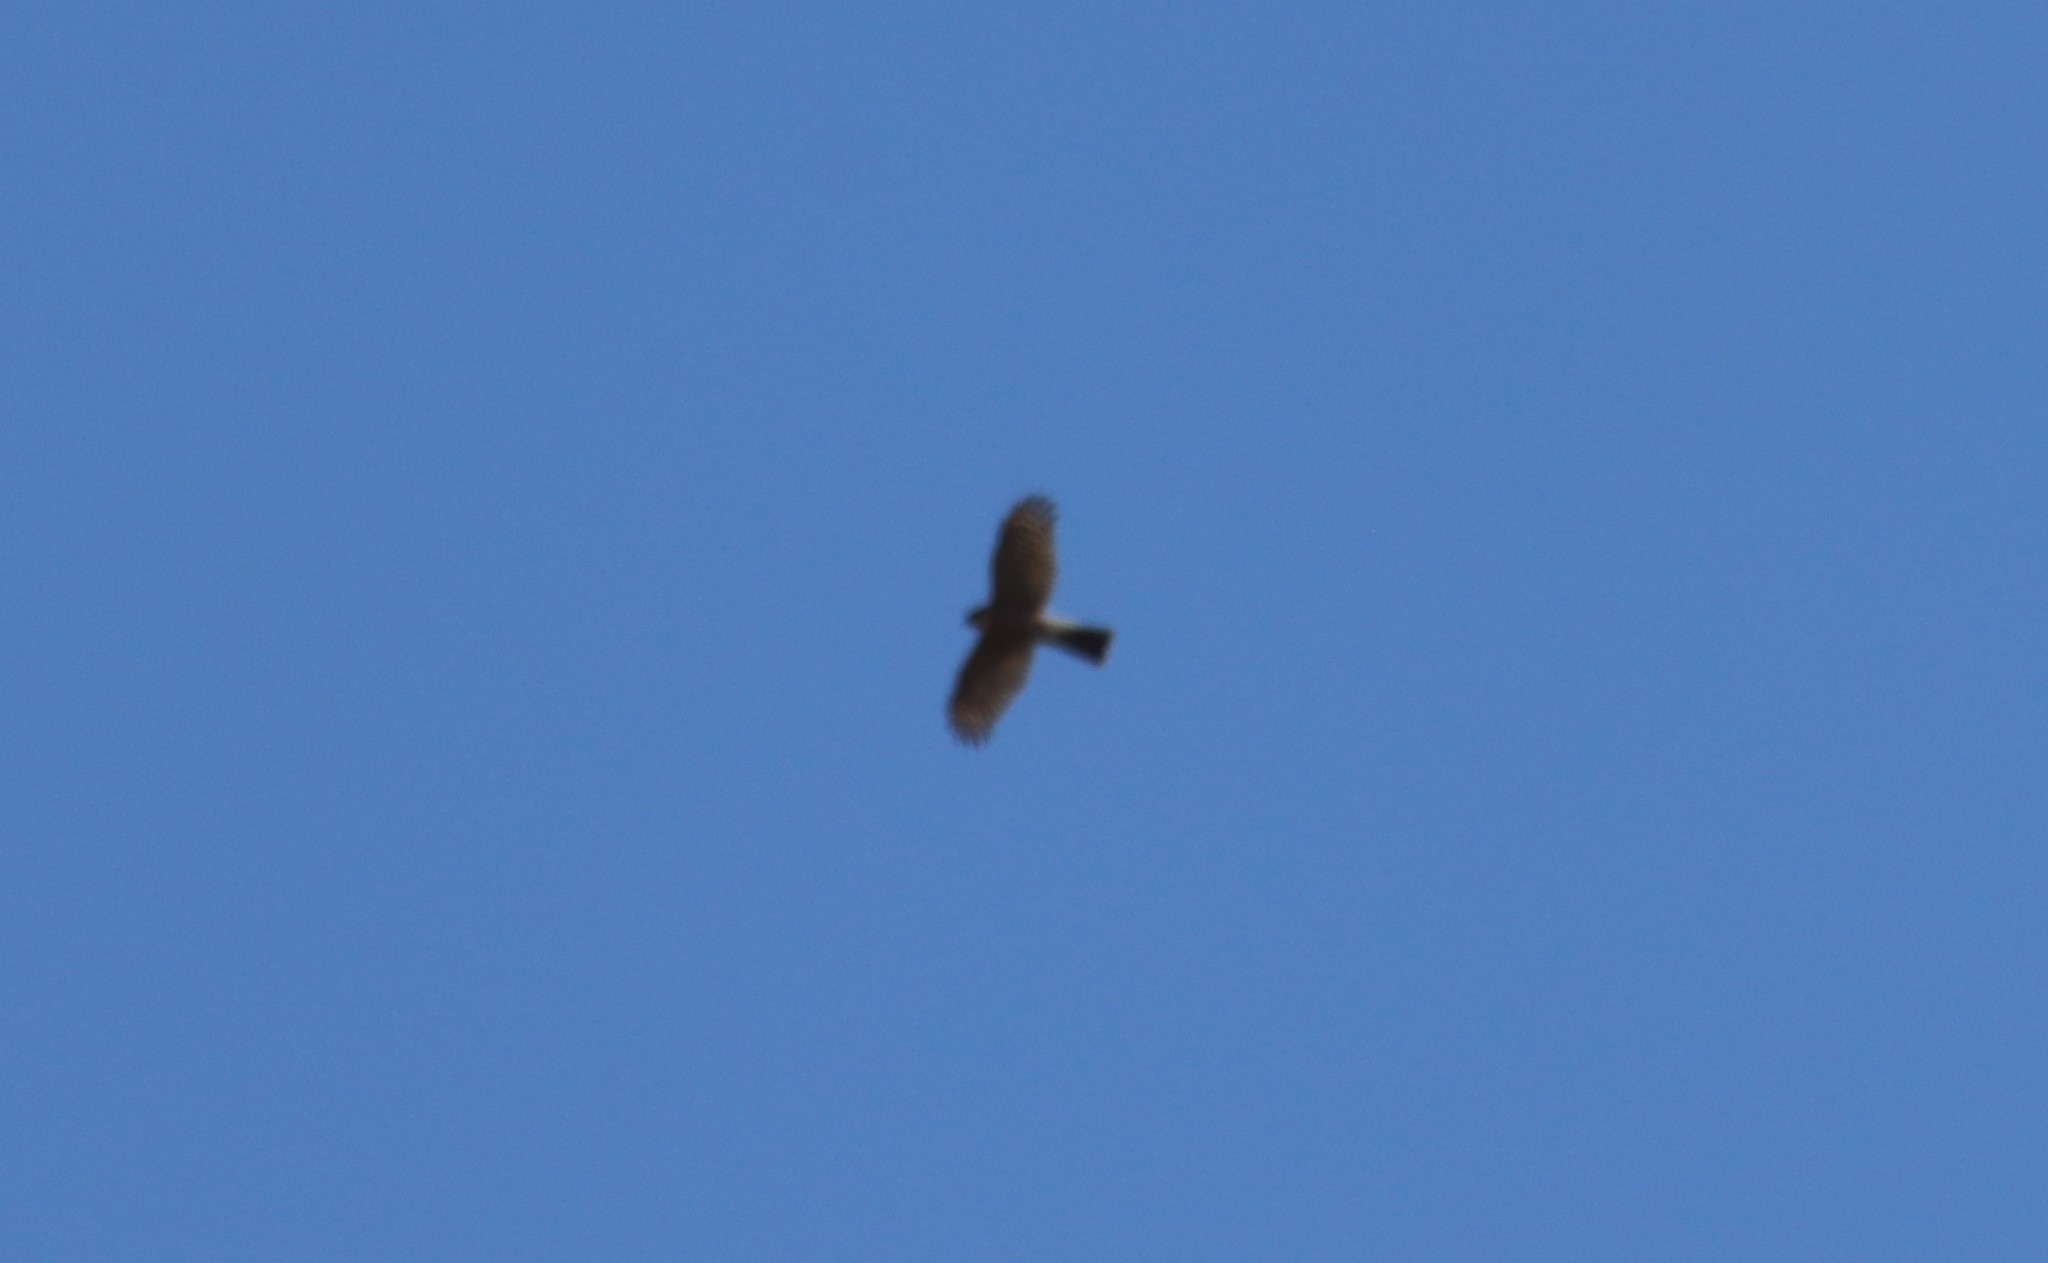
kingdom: Animalia
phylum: Chordata
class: Aves
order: Accipitriformes
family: Accipitridae
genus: Accipiter
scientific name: Accipiter striatus
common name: Sharp-shinned hawk
